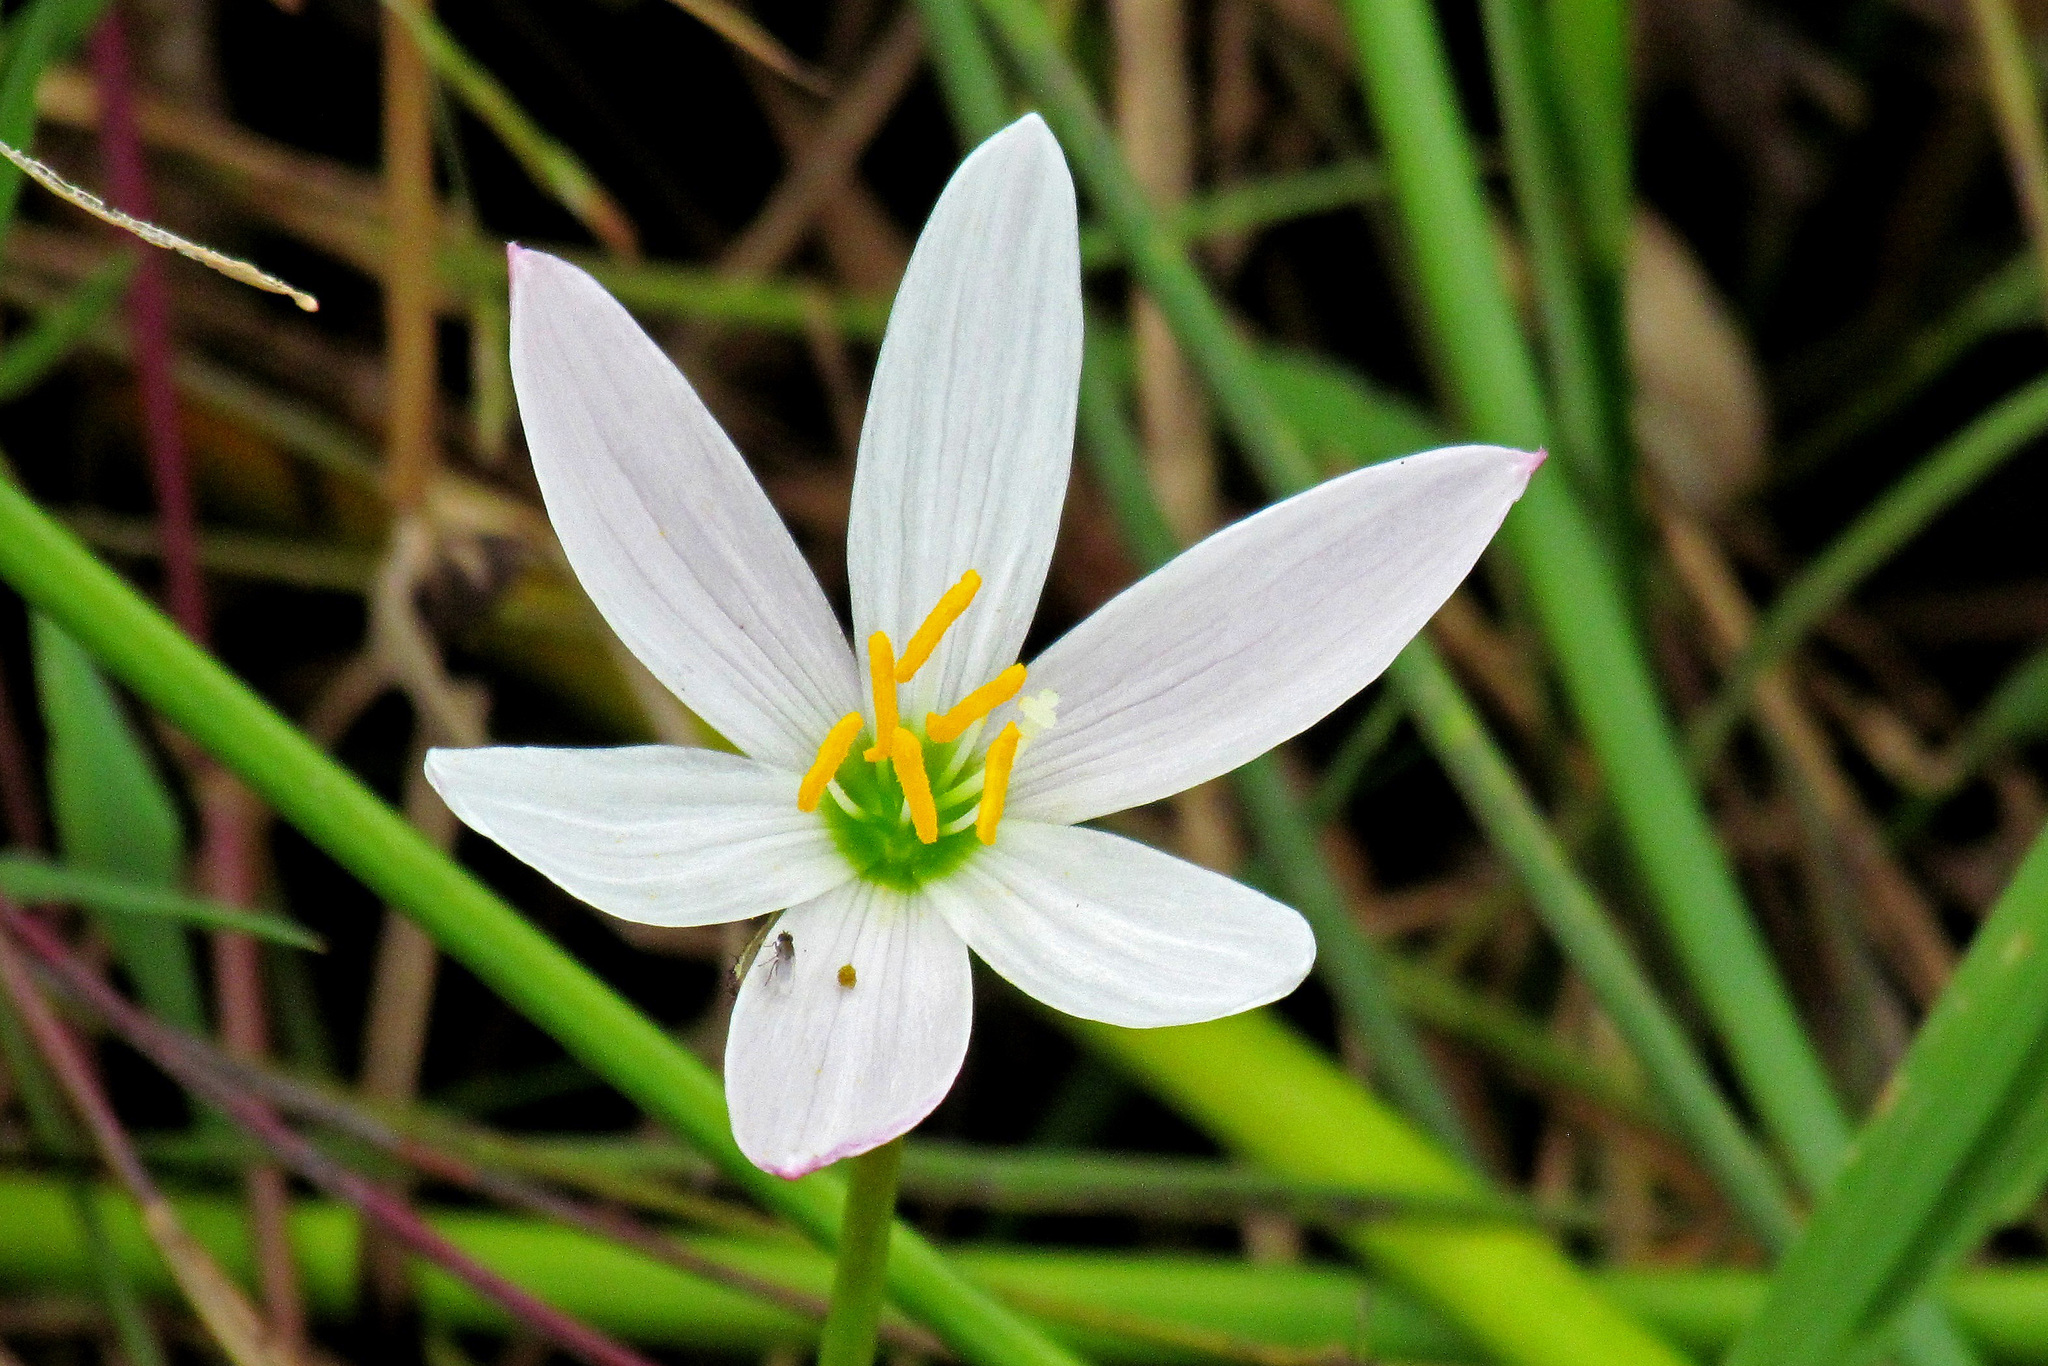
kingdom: Plantae
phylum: Tracheophyta
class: Liliopsida
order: Asparagales
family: Amaryllidaceae
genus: Zephyranthes
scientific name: Zephyranthes candida
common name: Autumn zephyrlily
